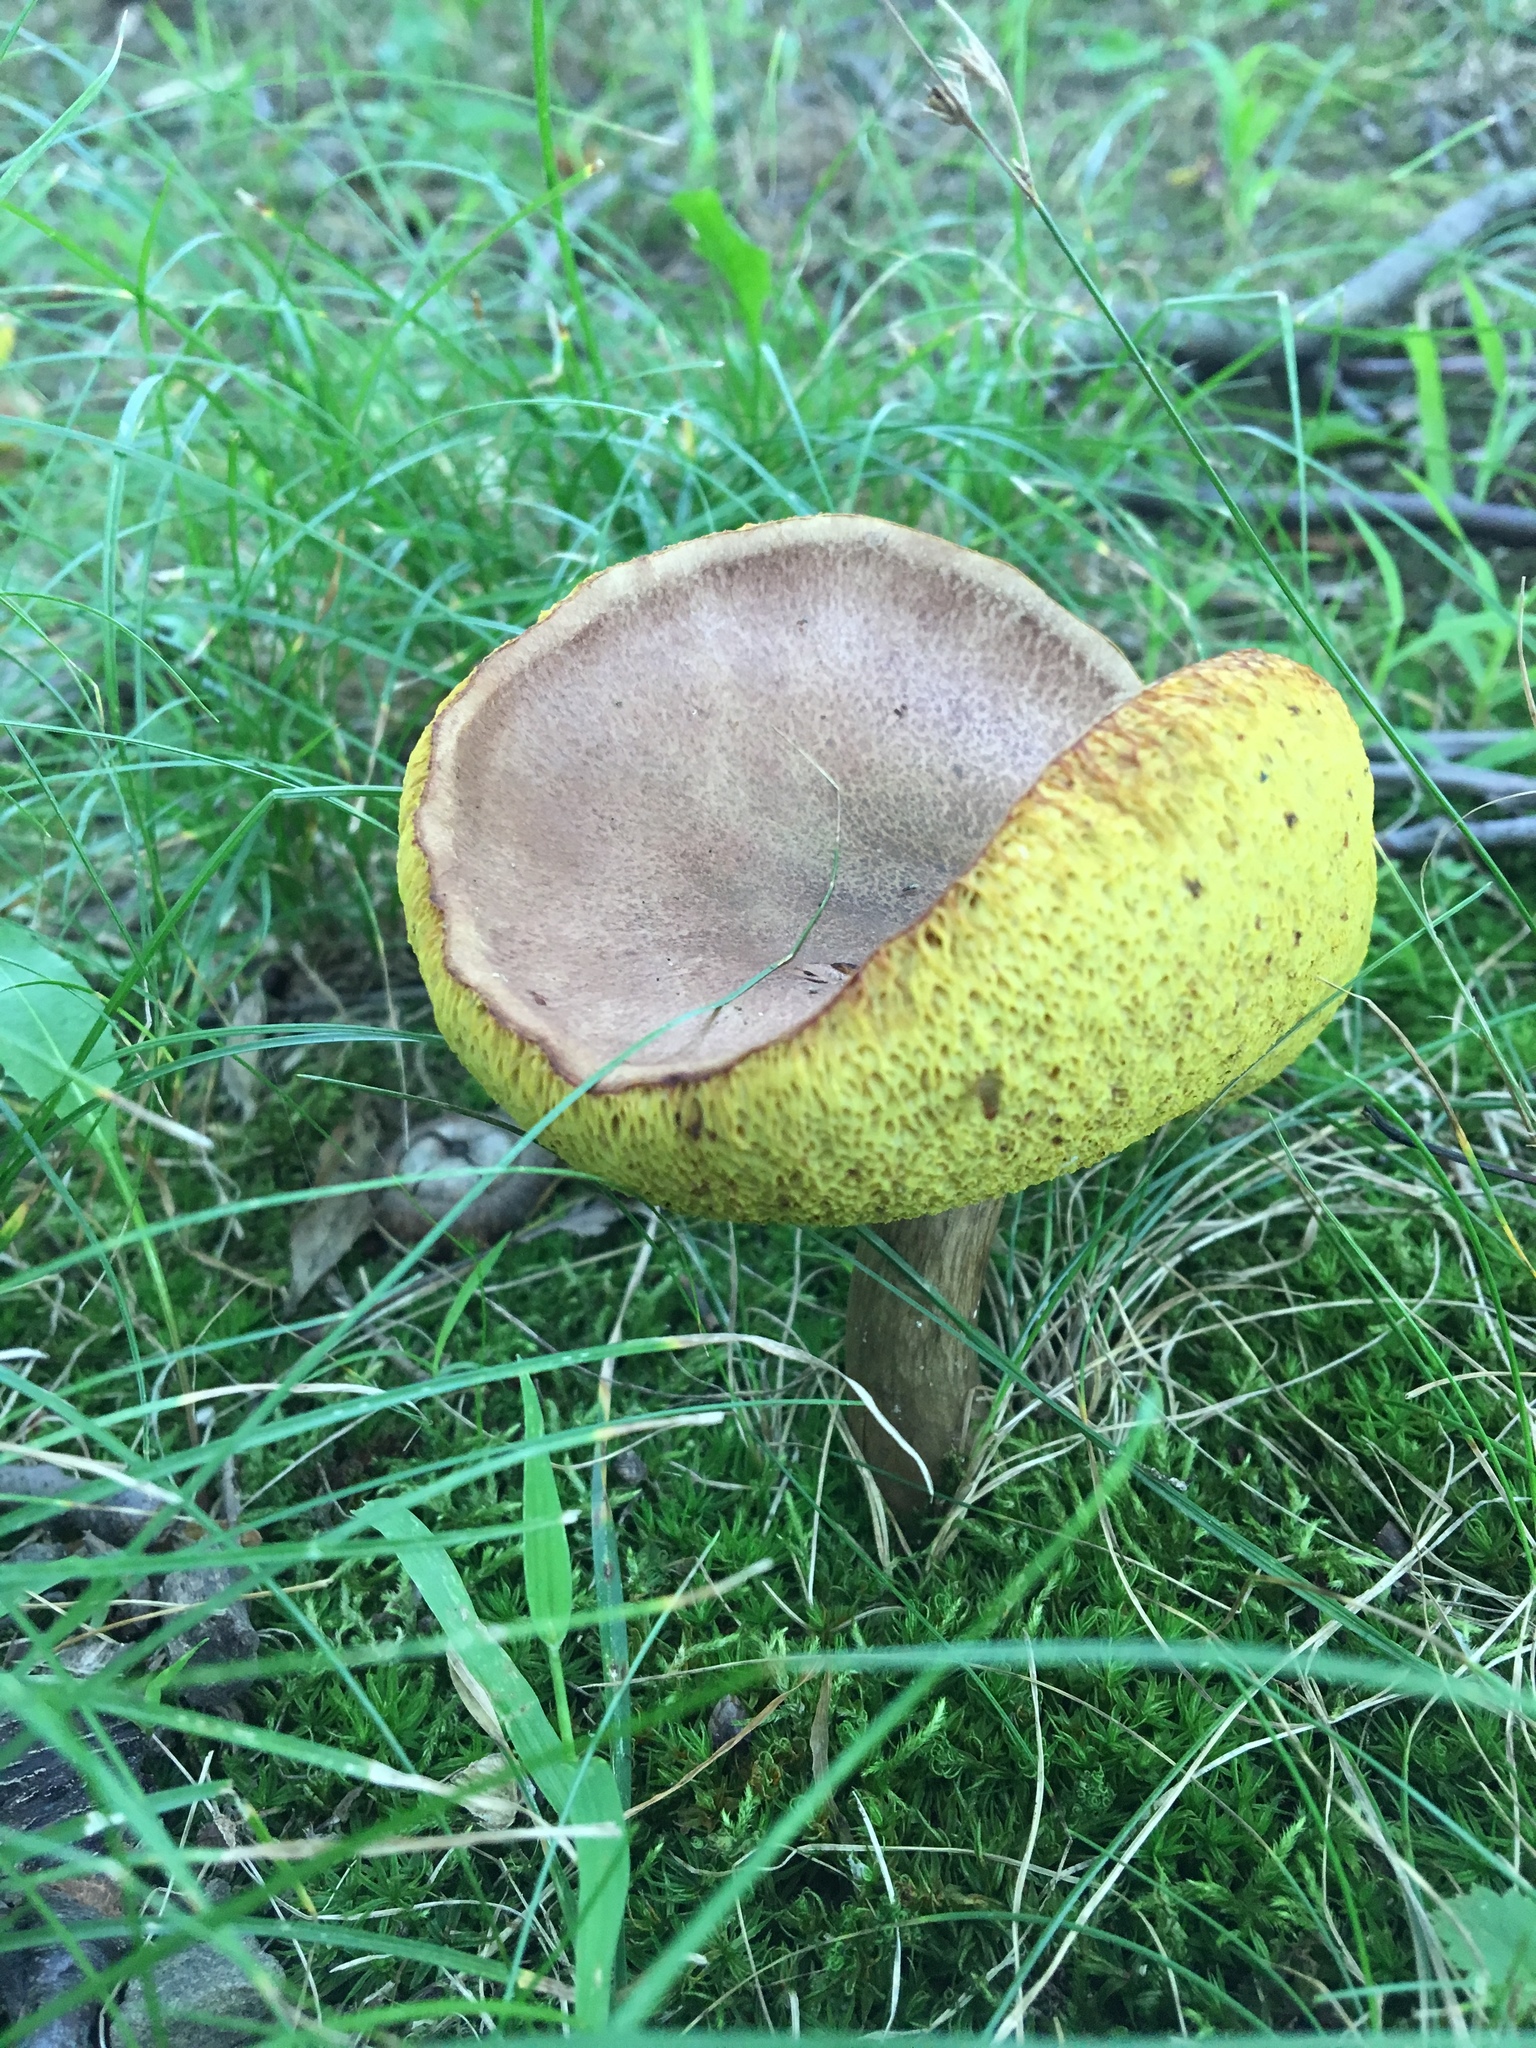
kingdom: Fungi
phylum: Basidiomycota
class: Agaricomycetes
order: Boletales
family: Boletaceae
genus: Aureoboletus
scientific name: Aureoboletus innixus
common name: Clustered brown bolete
